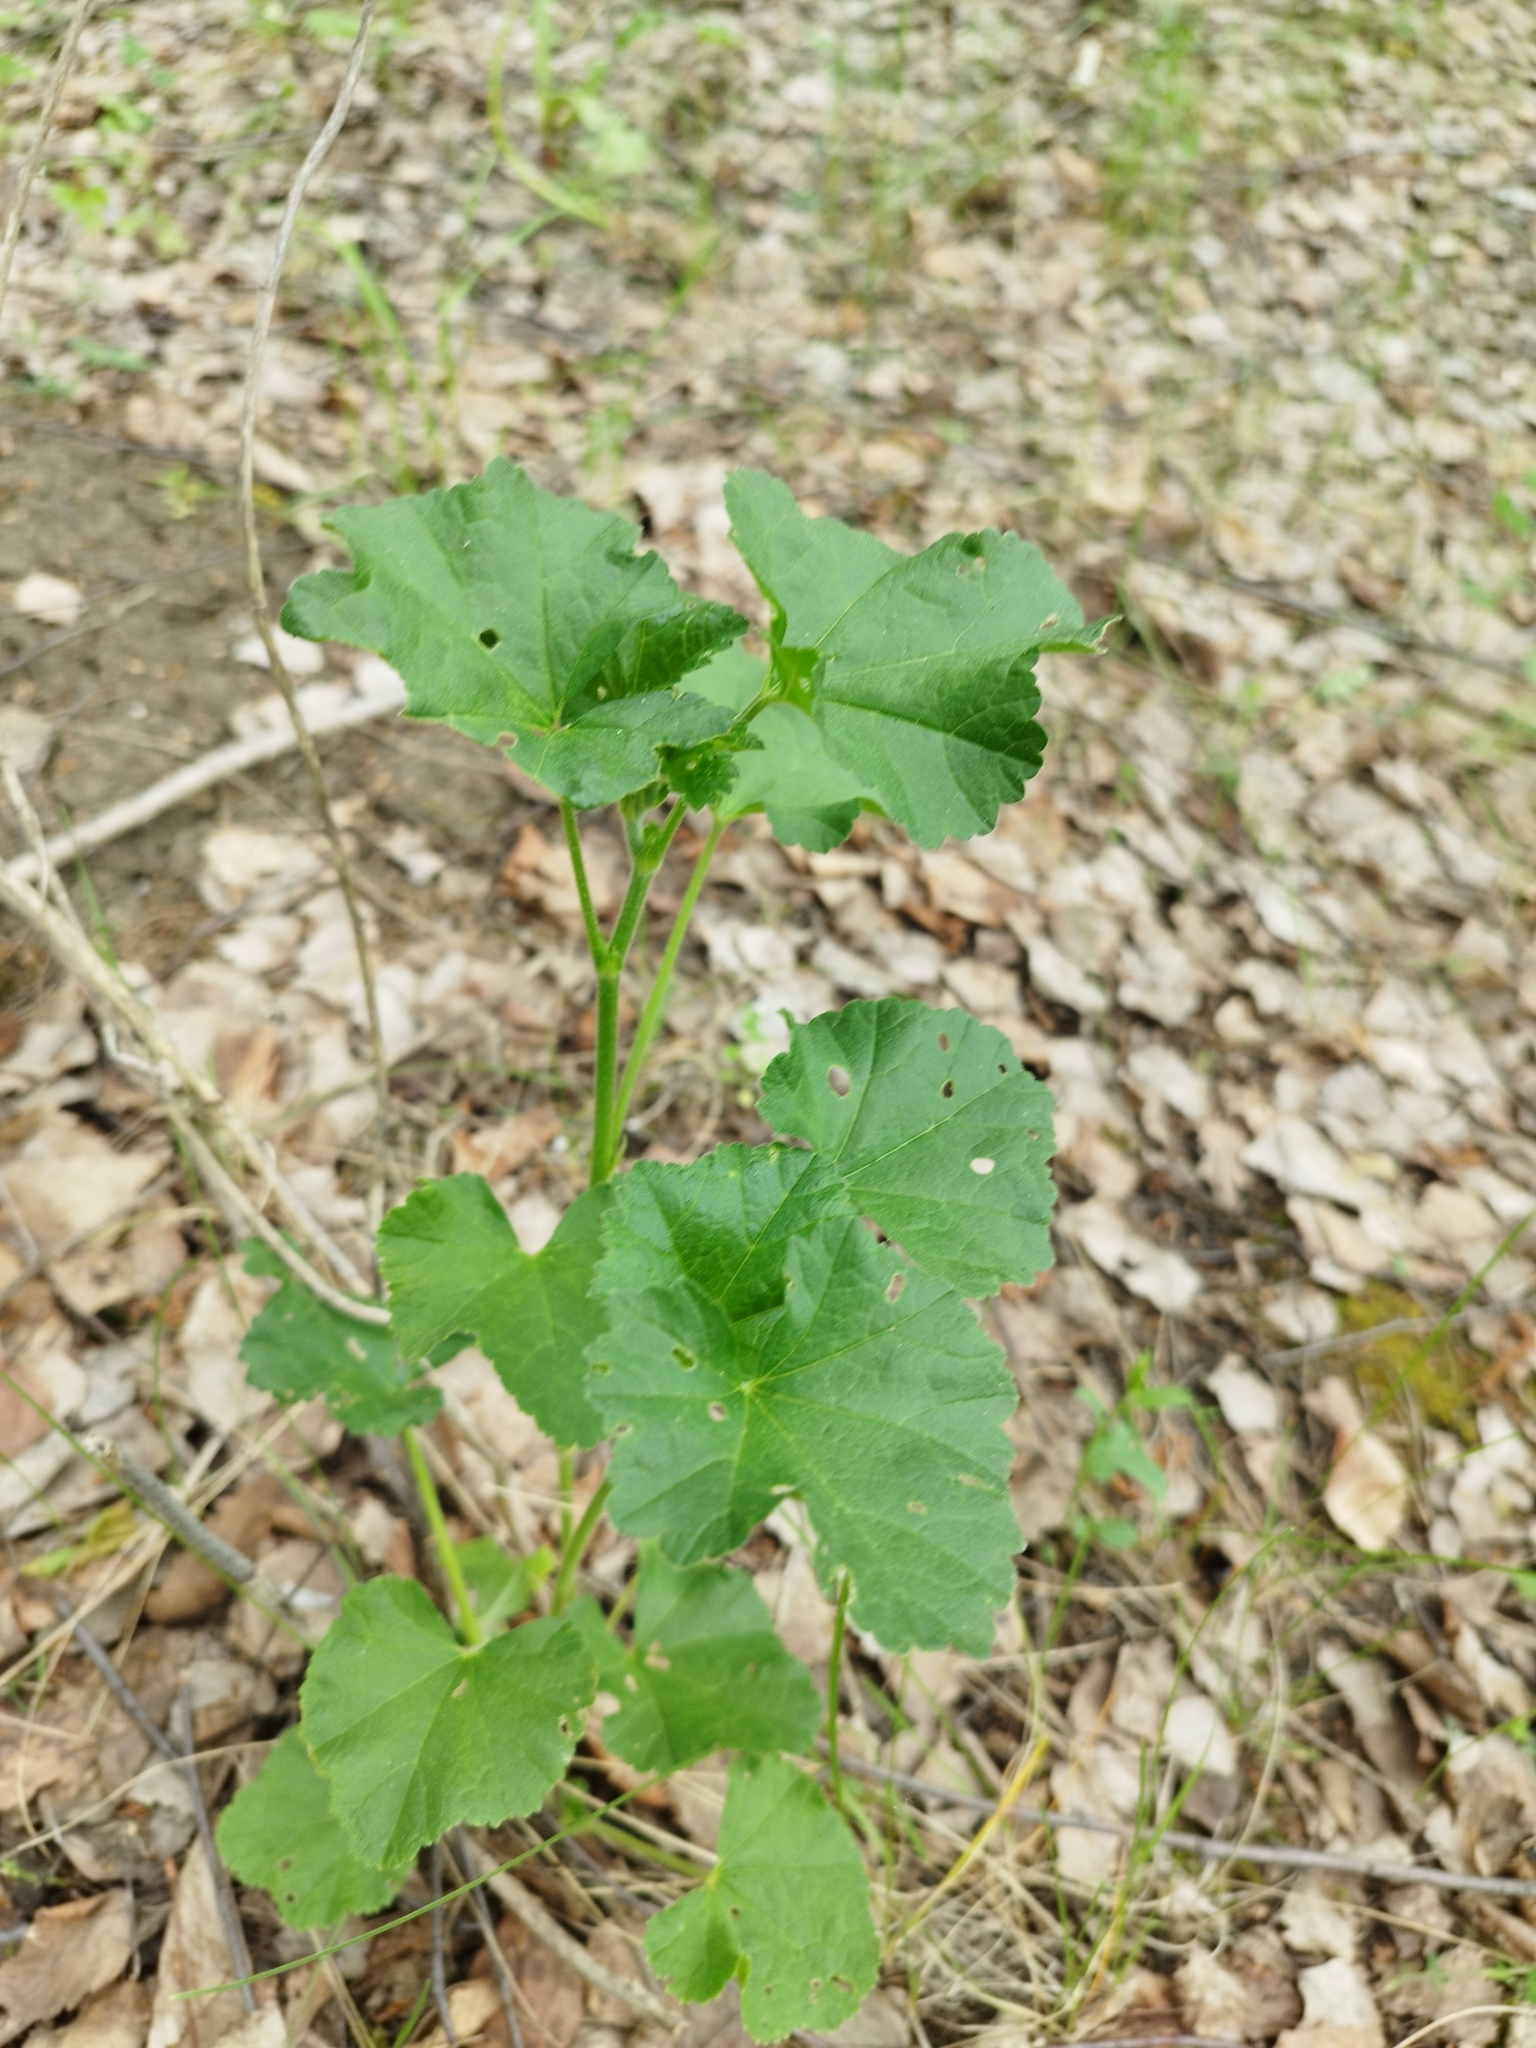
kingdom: Plantae
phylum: Tracheophyta
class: Magnoliopsida
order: Malvales
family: Malvaceae
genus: Malva
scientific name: Malva thuringiaca
